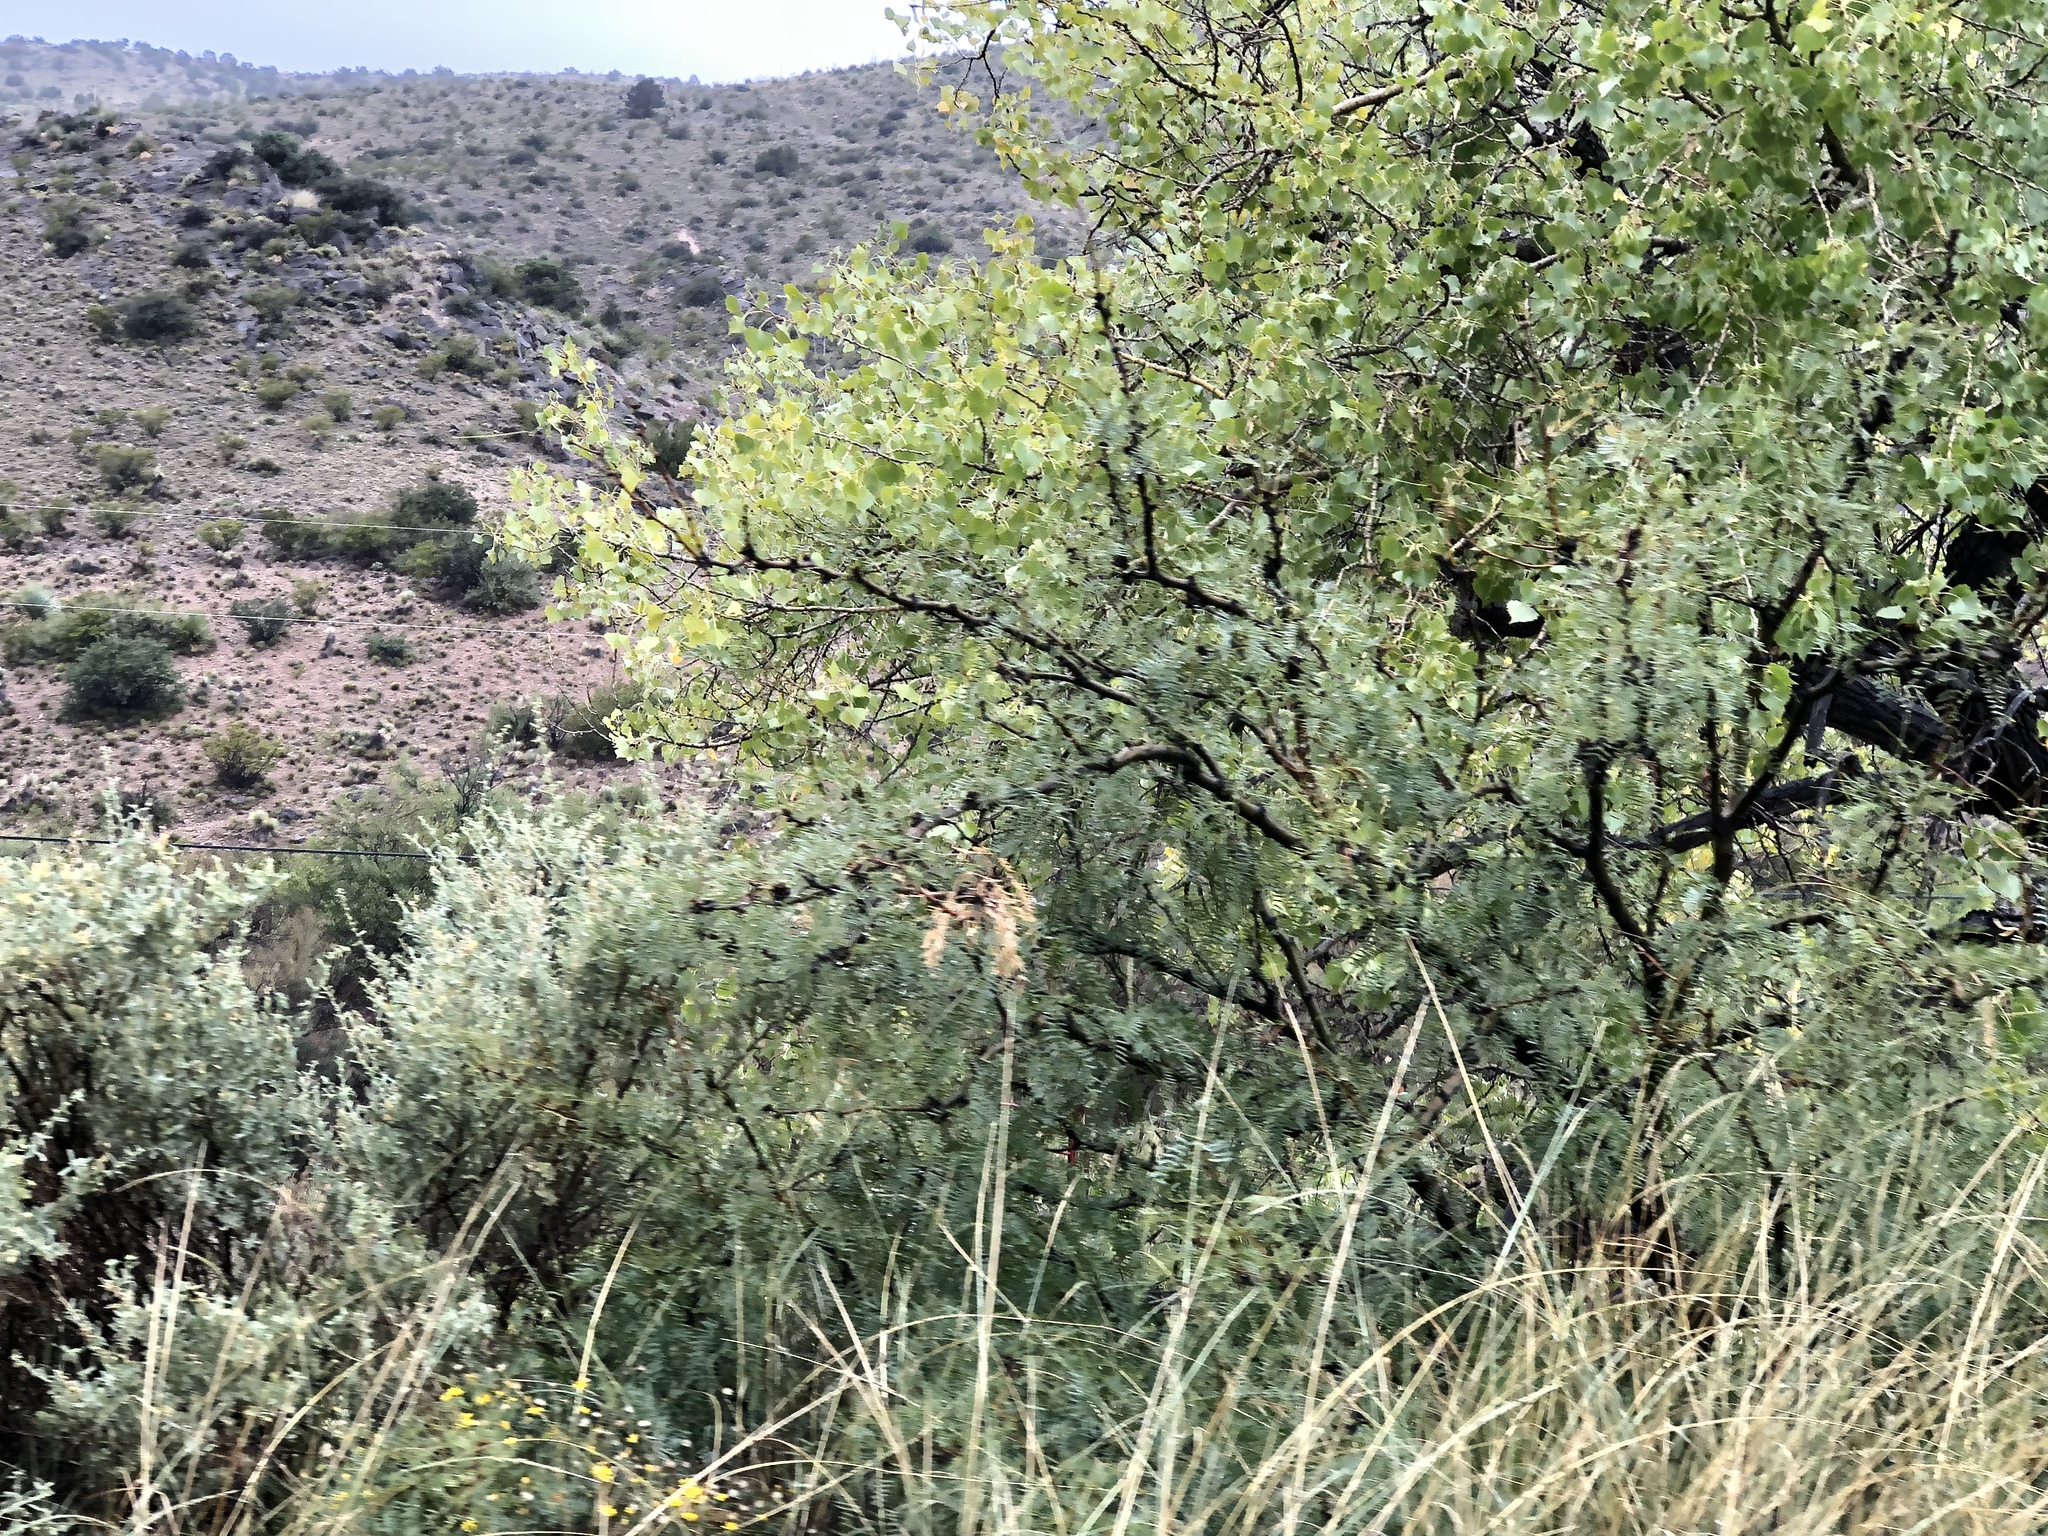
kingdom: Plantae
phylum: Tracheophyta
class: Magnoliopsida
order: Fabales
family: Fabaceae
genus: Prosopis
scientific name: Prosopis glandulosa
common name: Honey mesquite
